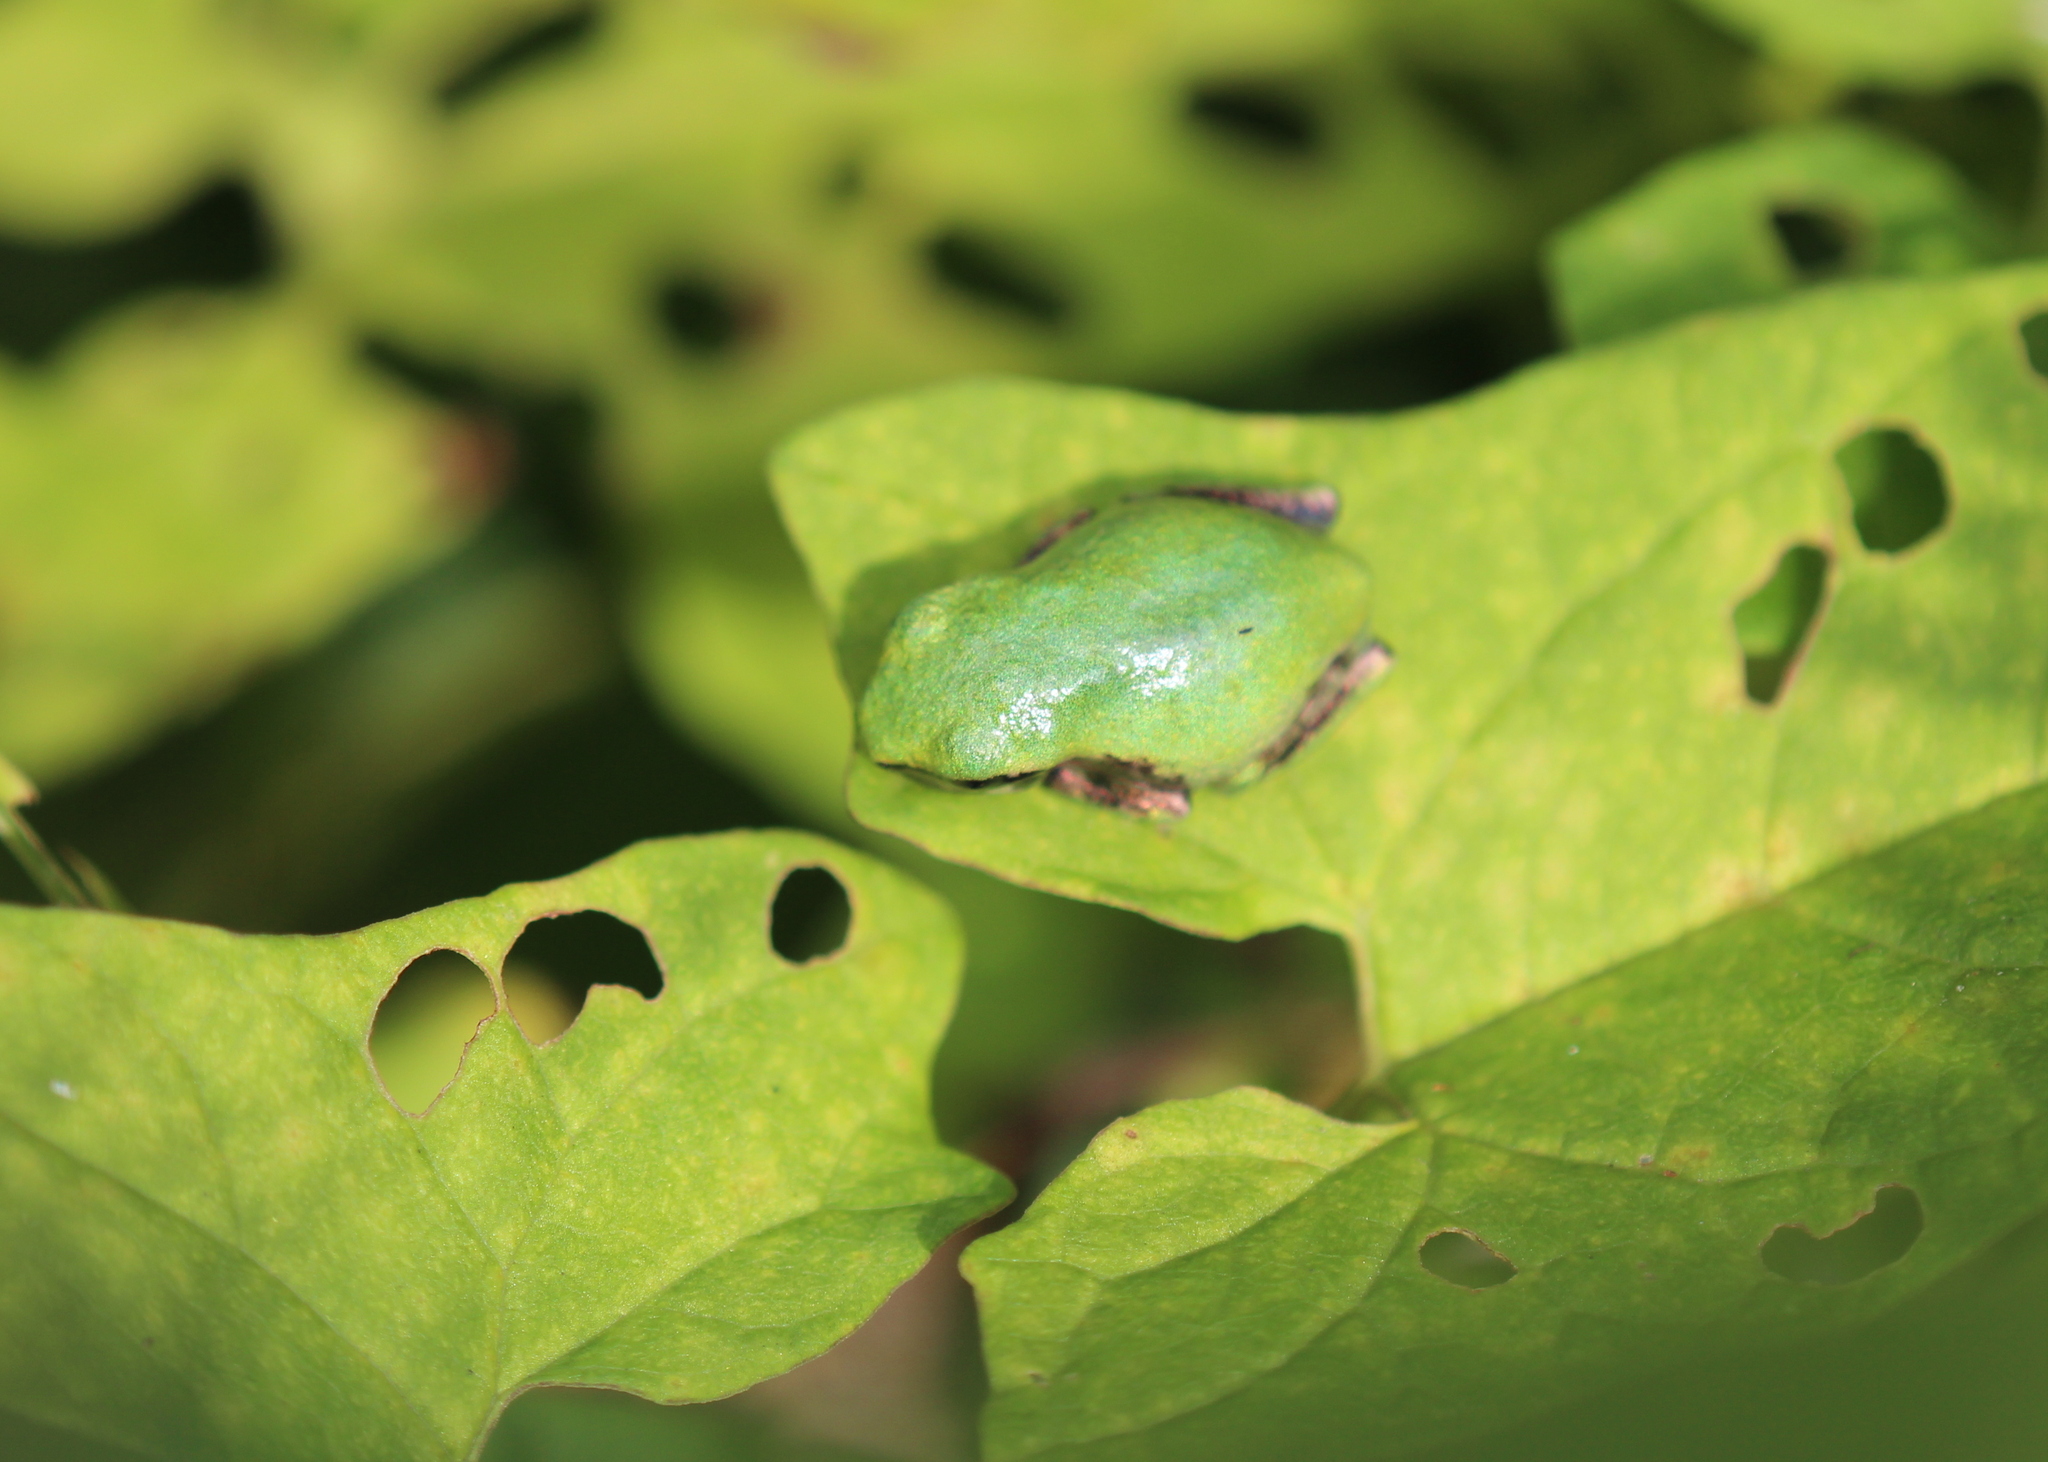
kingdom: Animalia
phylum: Chordata
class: Amphibia
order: Anura
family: Hylidae
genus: Dryophytes
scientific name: Dryophytes versicolor
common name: Gray treefrog
